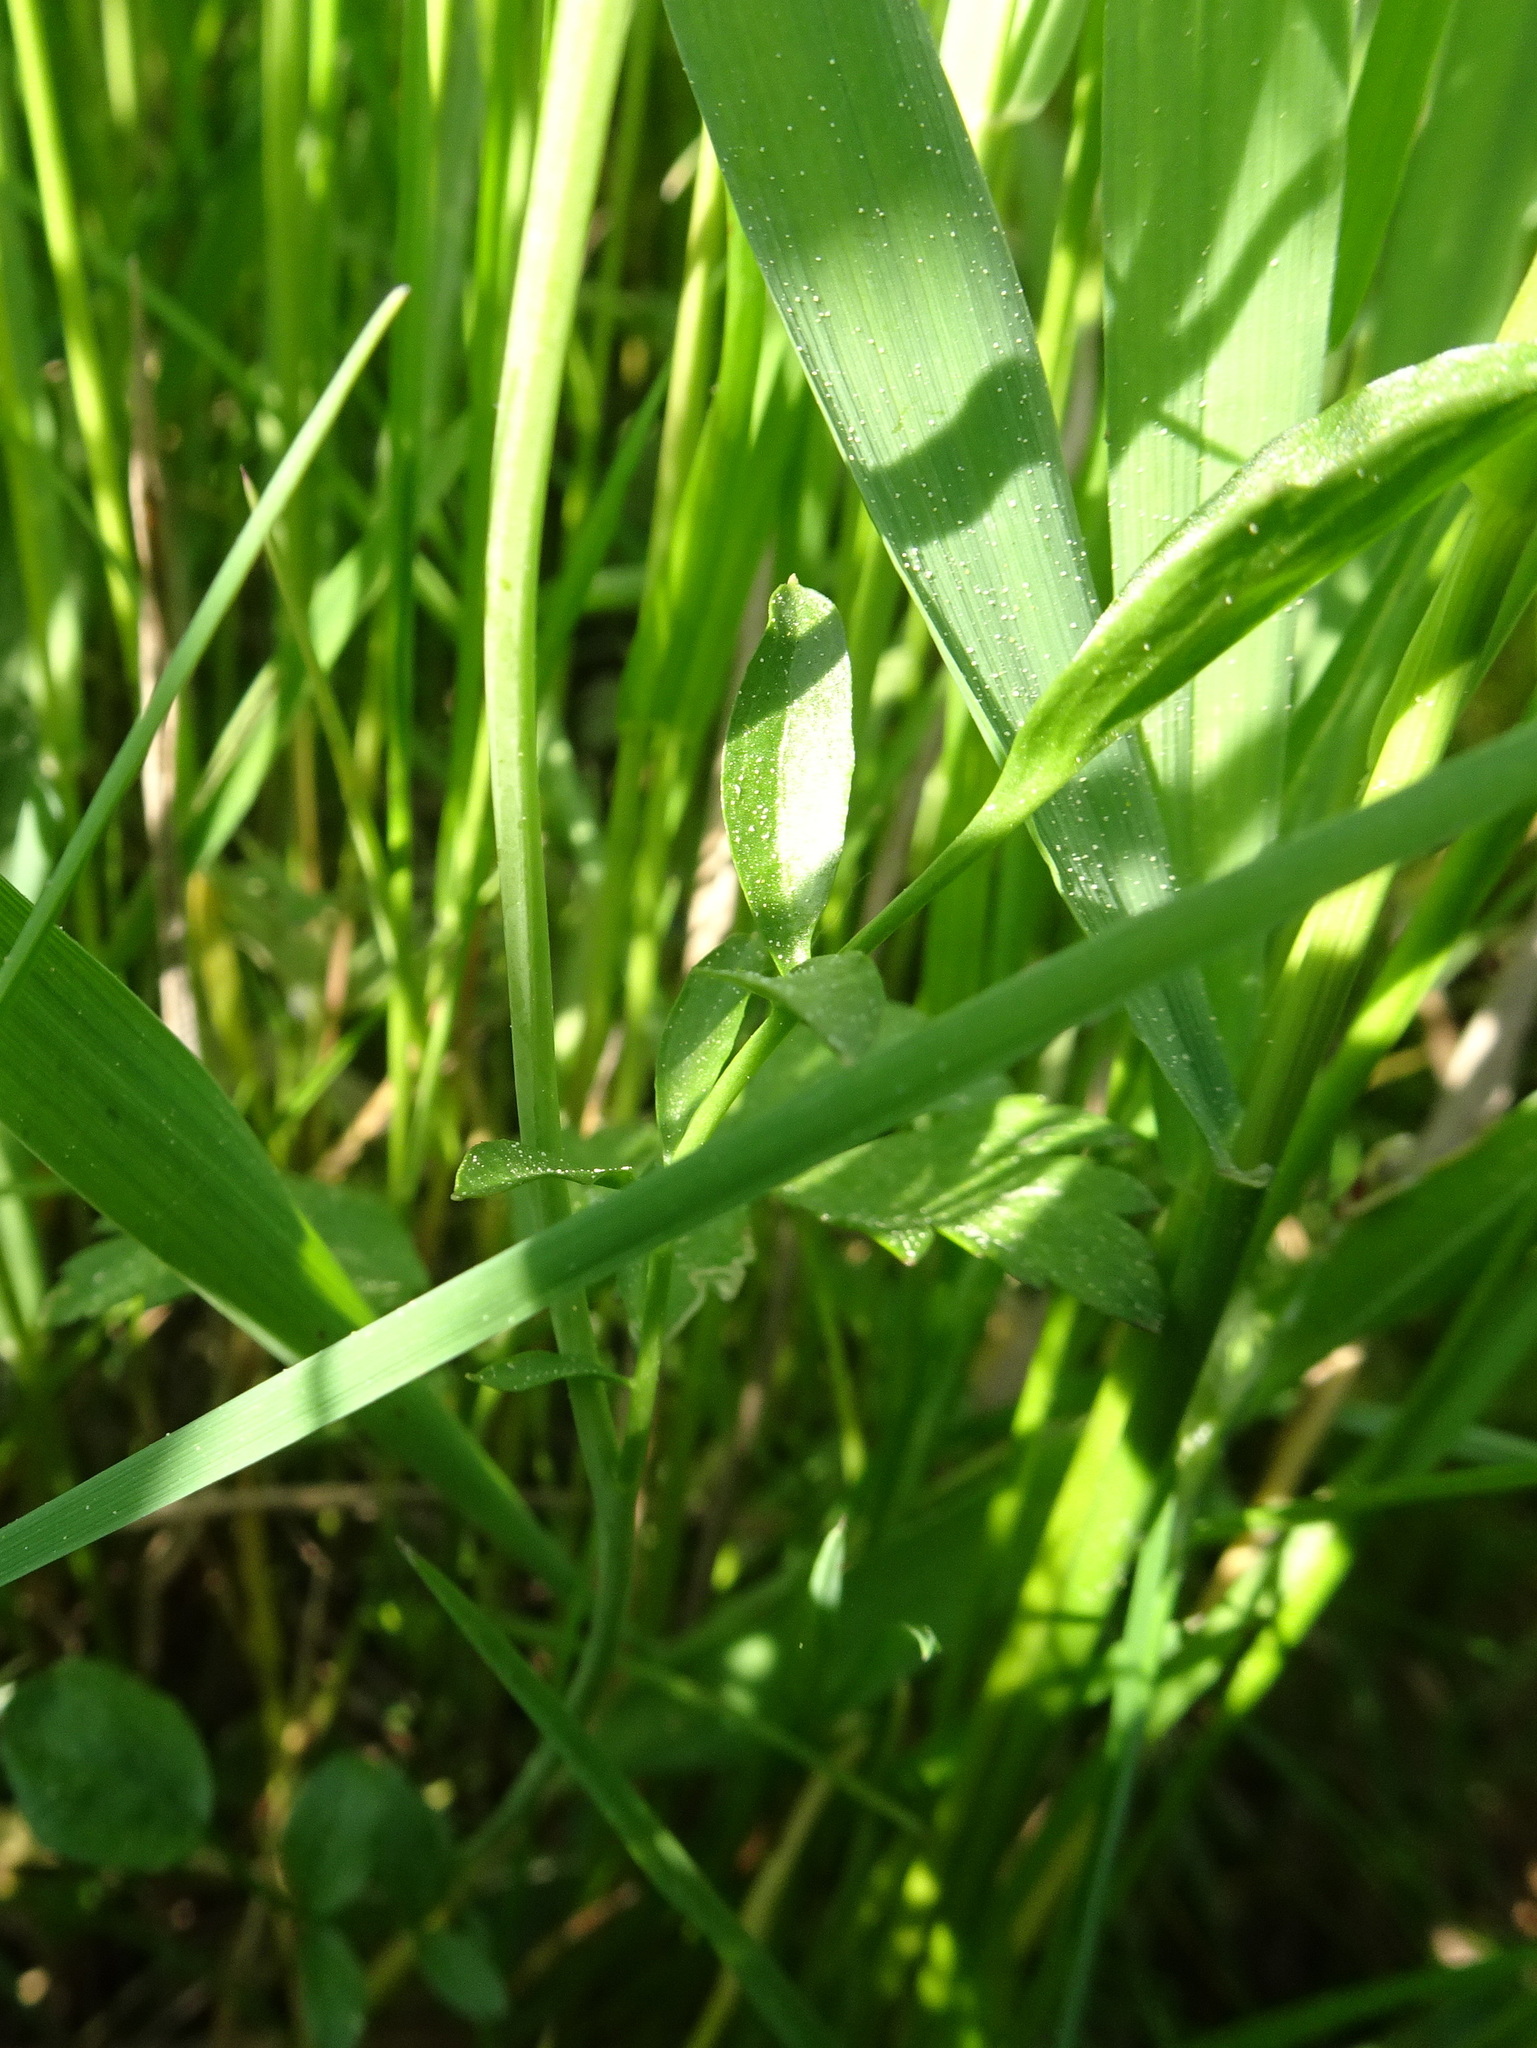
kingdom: Plantae
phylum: Tracheophyta
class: Magnoliopsida
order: Brassicales
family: Brassicaceae
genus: Cardamine
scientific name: Cardamine pratensis
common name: Cuckoo flower
